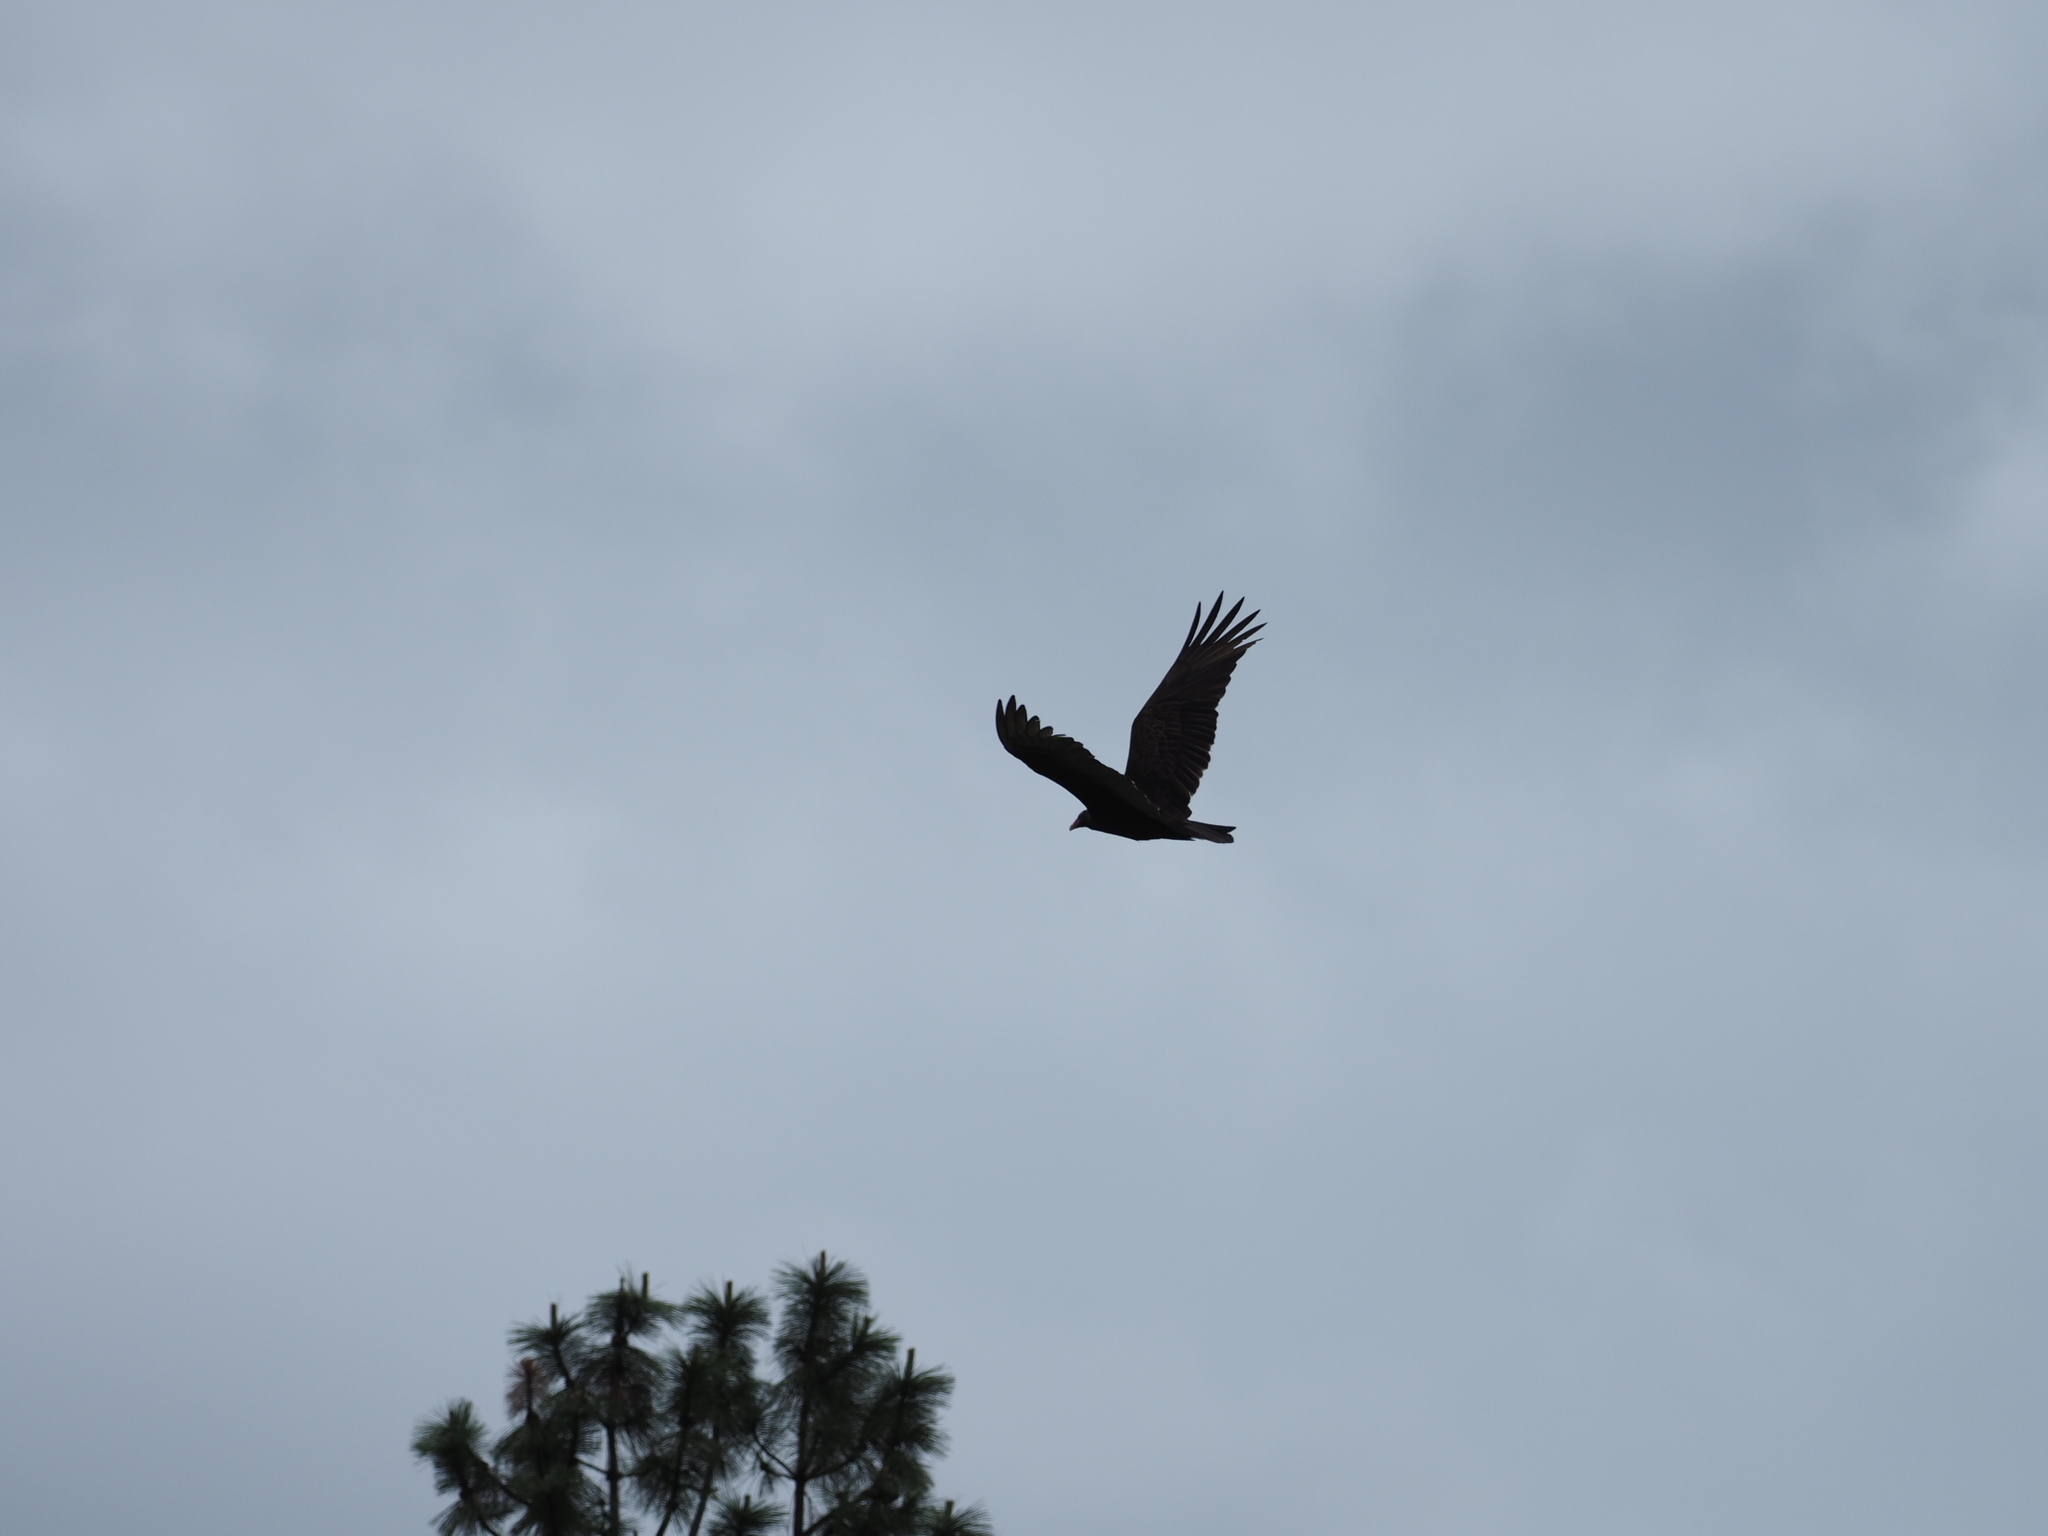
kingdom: Animalia
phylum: Chordata
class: Aves
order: Accipitriformes
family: Cathartidae
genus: Cathartes
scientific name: Cathartes aura
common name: Turkey vulture
